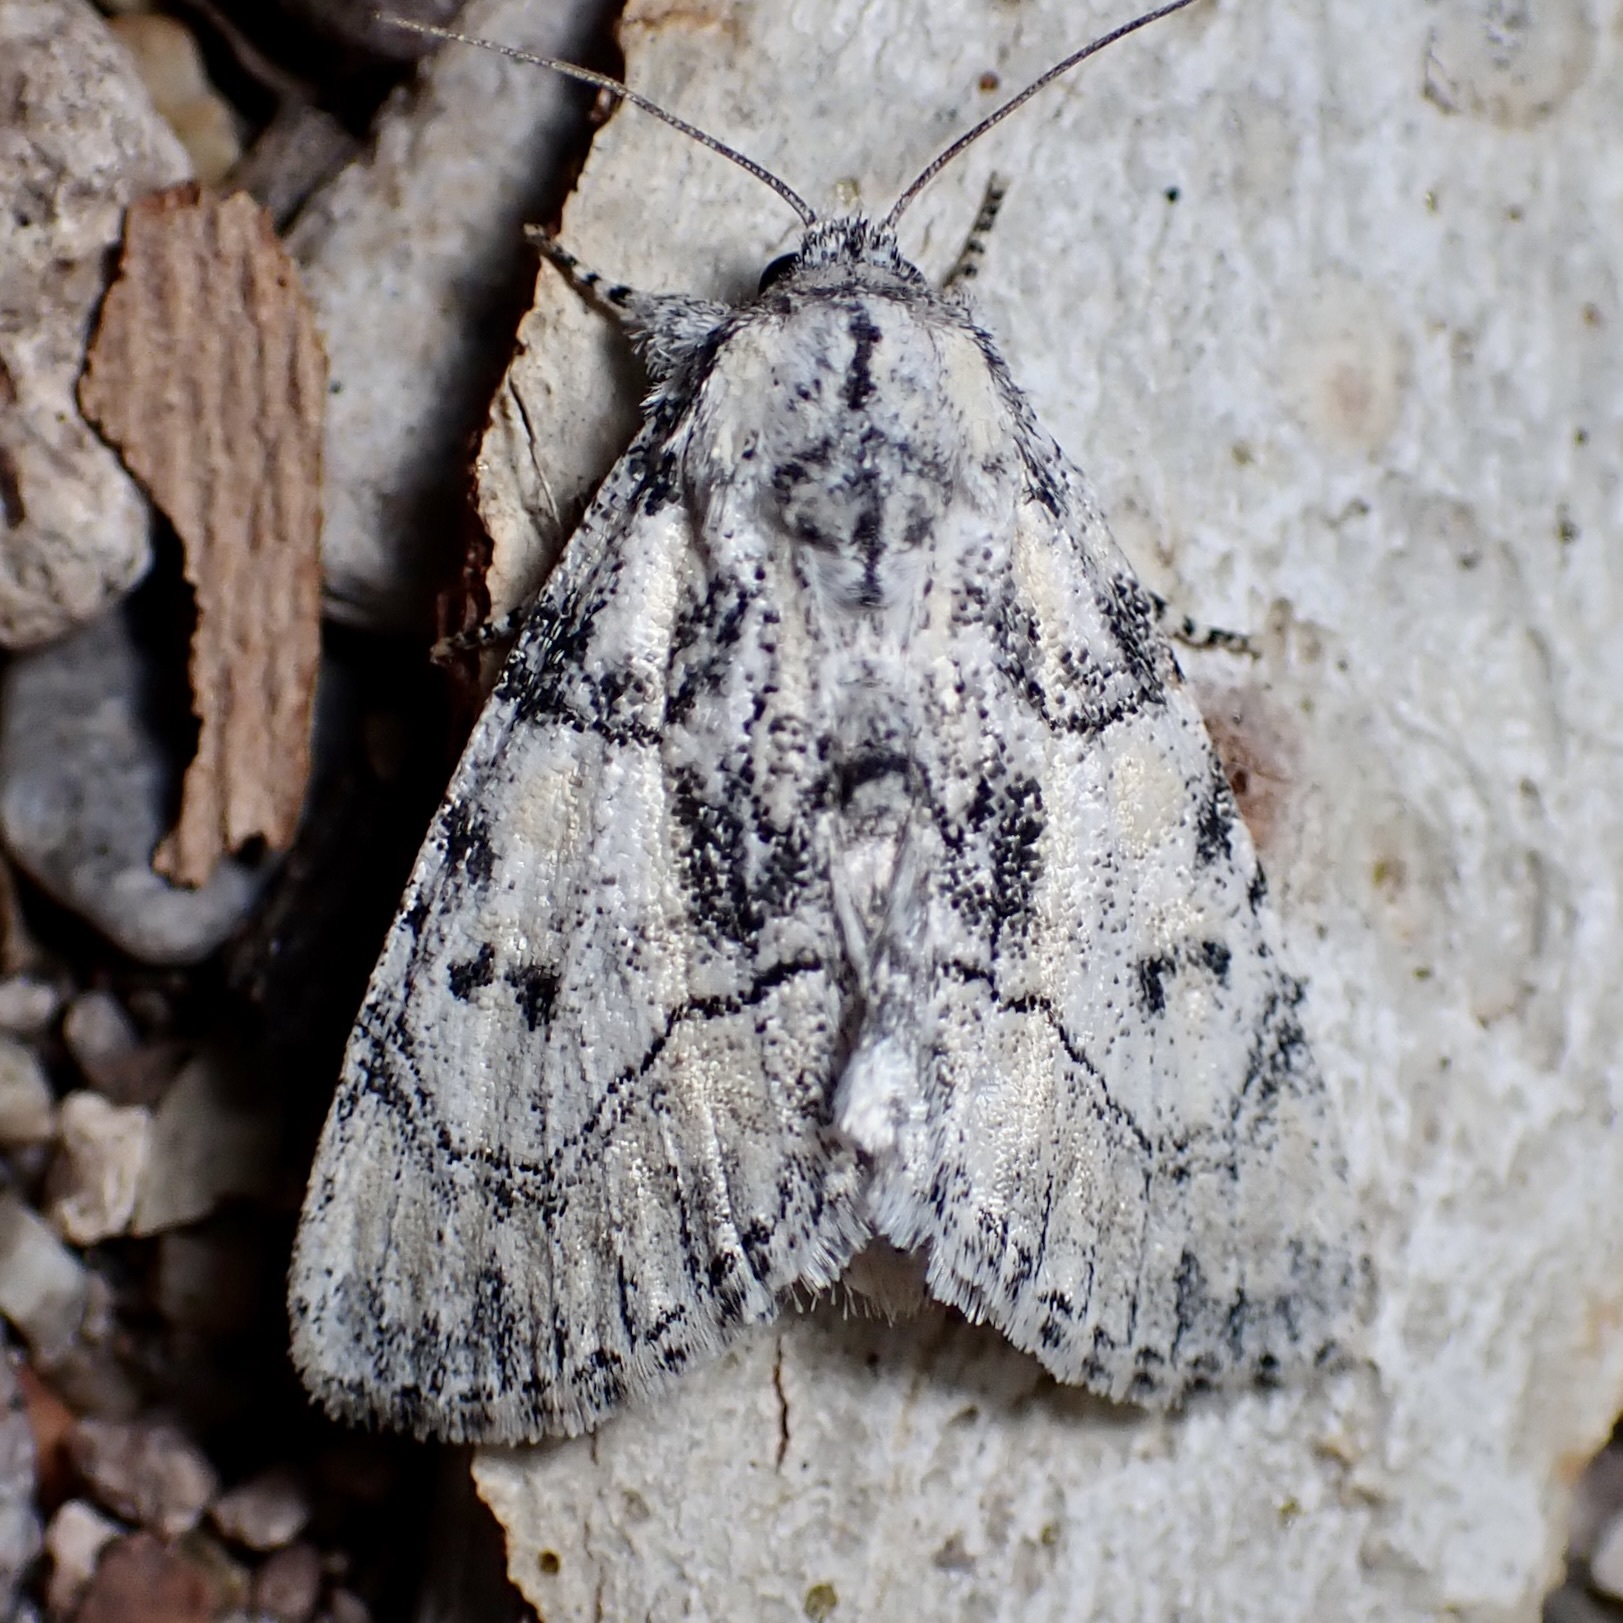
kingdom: Animalia
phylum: Arthropoda
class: Insecta
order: Lepidoptera
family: Noctuidae
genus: Raphia
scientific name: Raphia frater
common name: Brother
